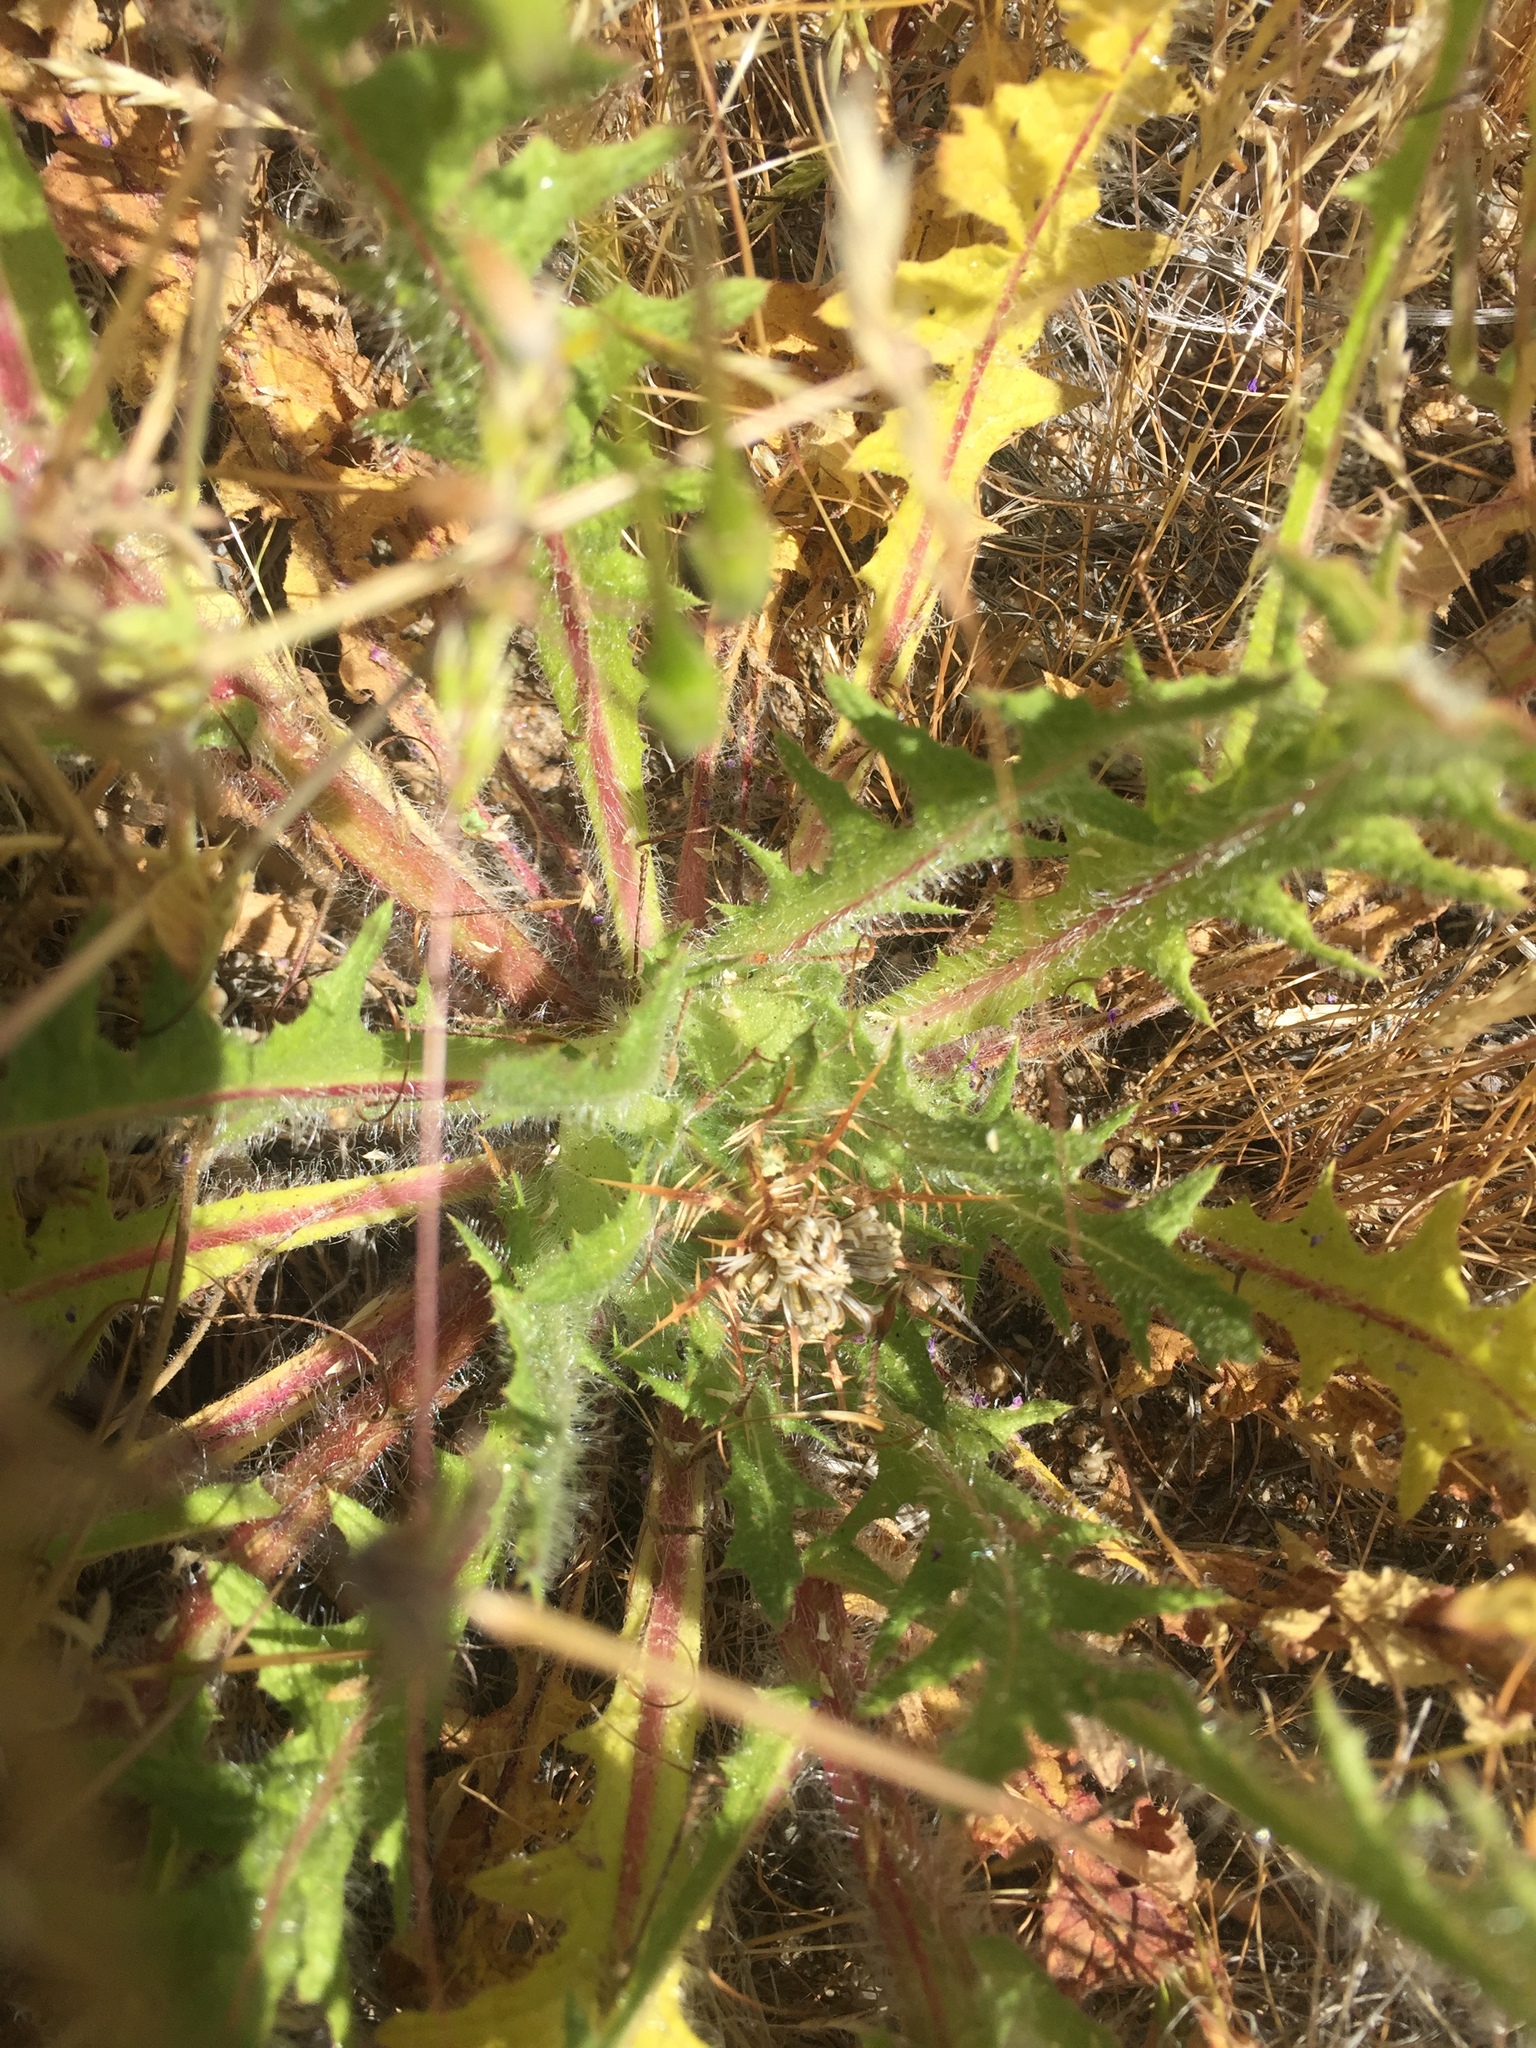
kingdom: Plantae
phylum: Tracheophyta
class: Magnoliopsida
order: Asterales
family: Asteraceae
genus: Centaurea
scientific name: Centaurea benedicta
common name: Blessed thistle
